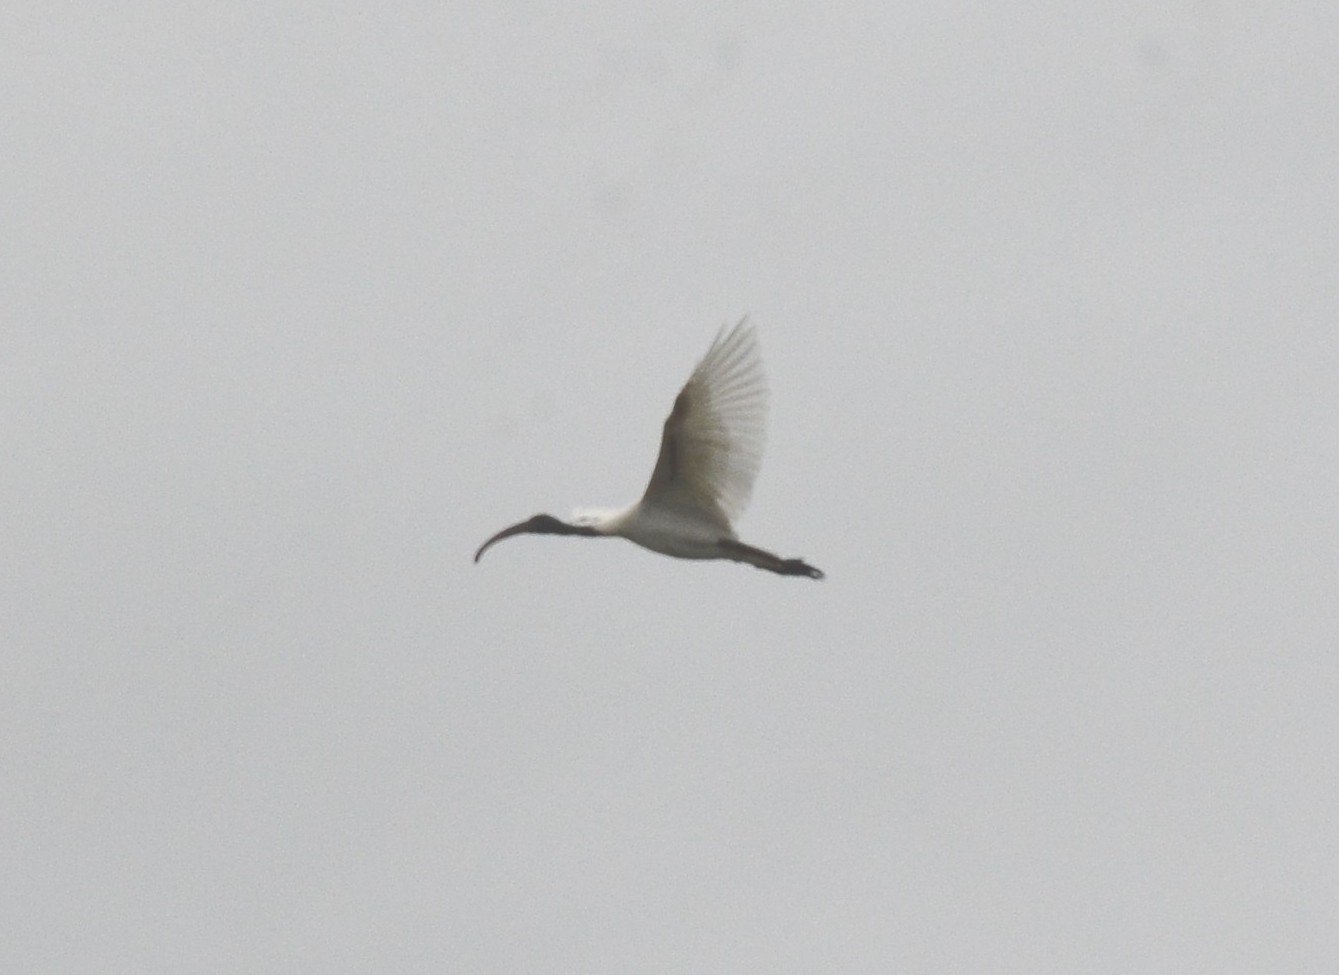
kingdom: Animalia
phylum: Chordata
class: Aves
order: Pelecaniformes
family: Threskiornithidae
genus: Threskiornis
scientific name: Threskiornis melanocephalus
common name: Black-headed ibis
